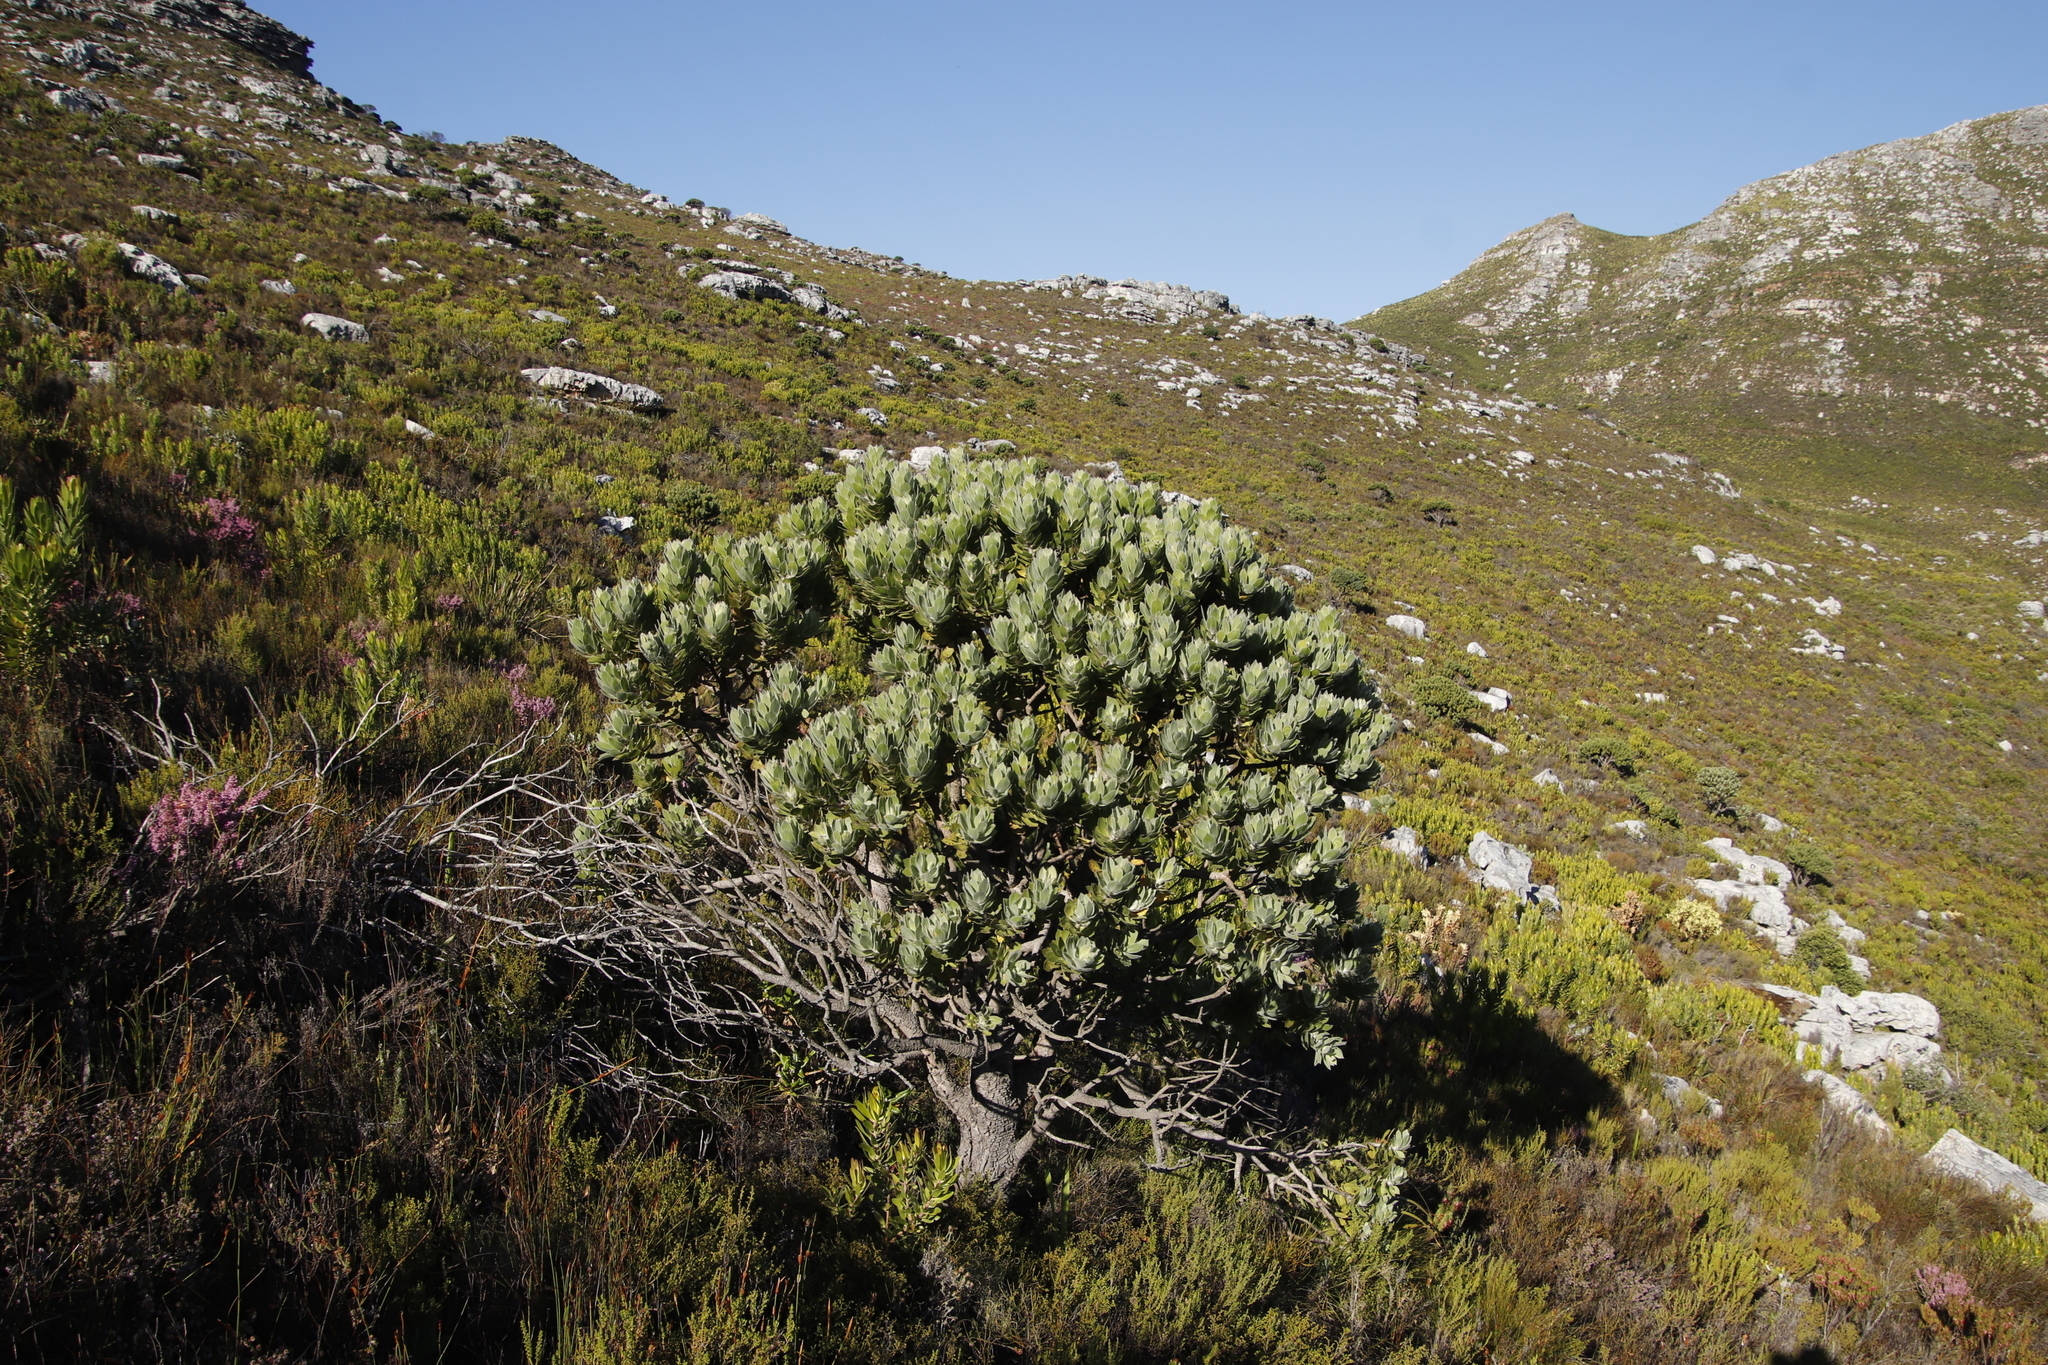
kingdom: Plantae
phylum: Tracheophyta
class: Magnoliopsida
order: Proteales
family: Proteaceae
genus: Leucospermum
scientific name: Leucospermum conocarpodendron
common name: Tree pincushion
